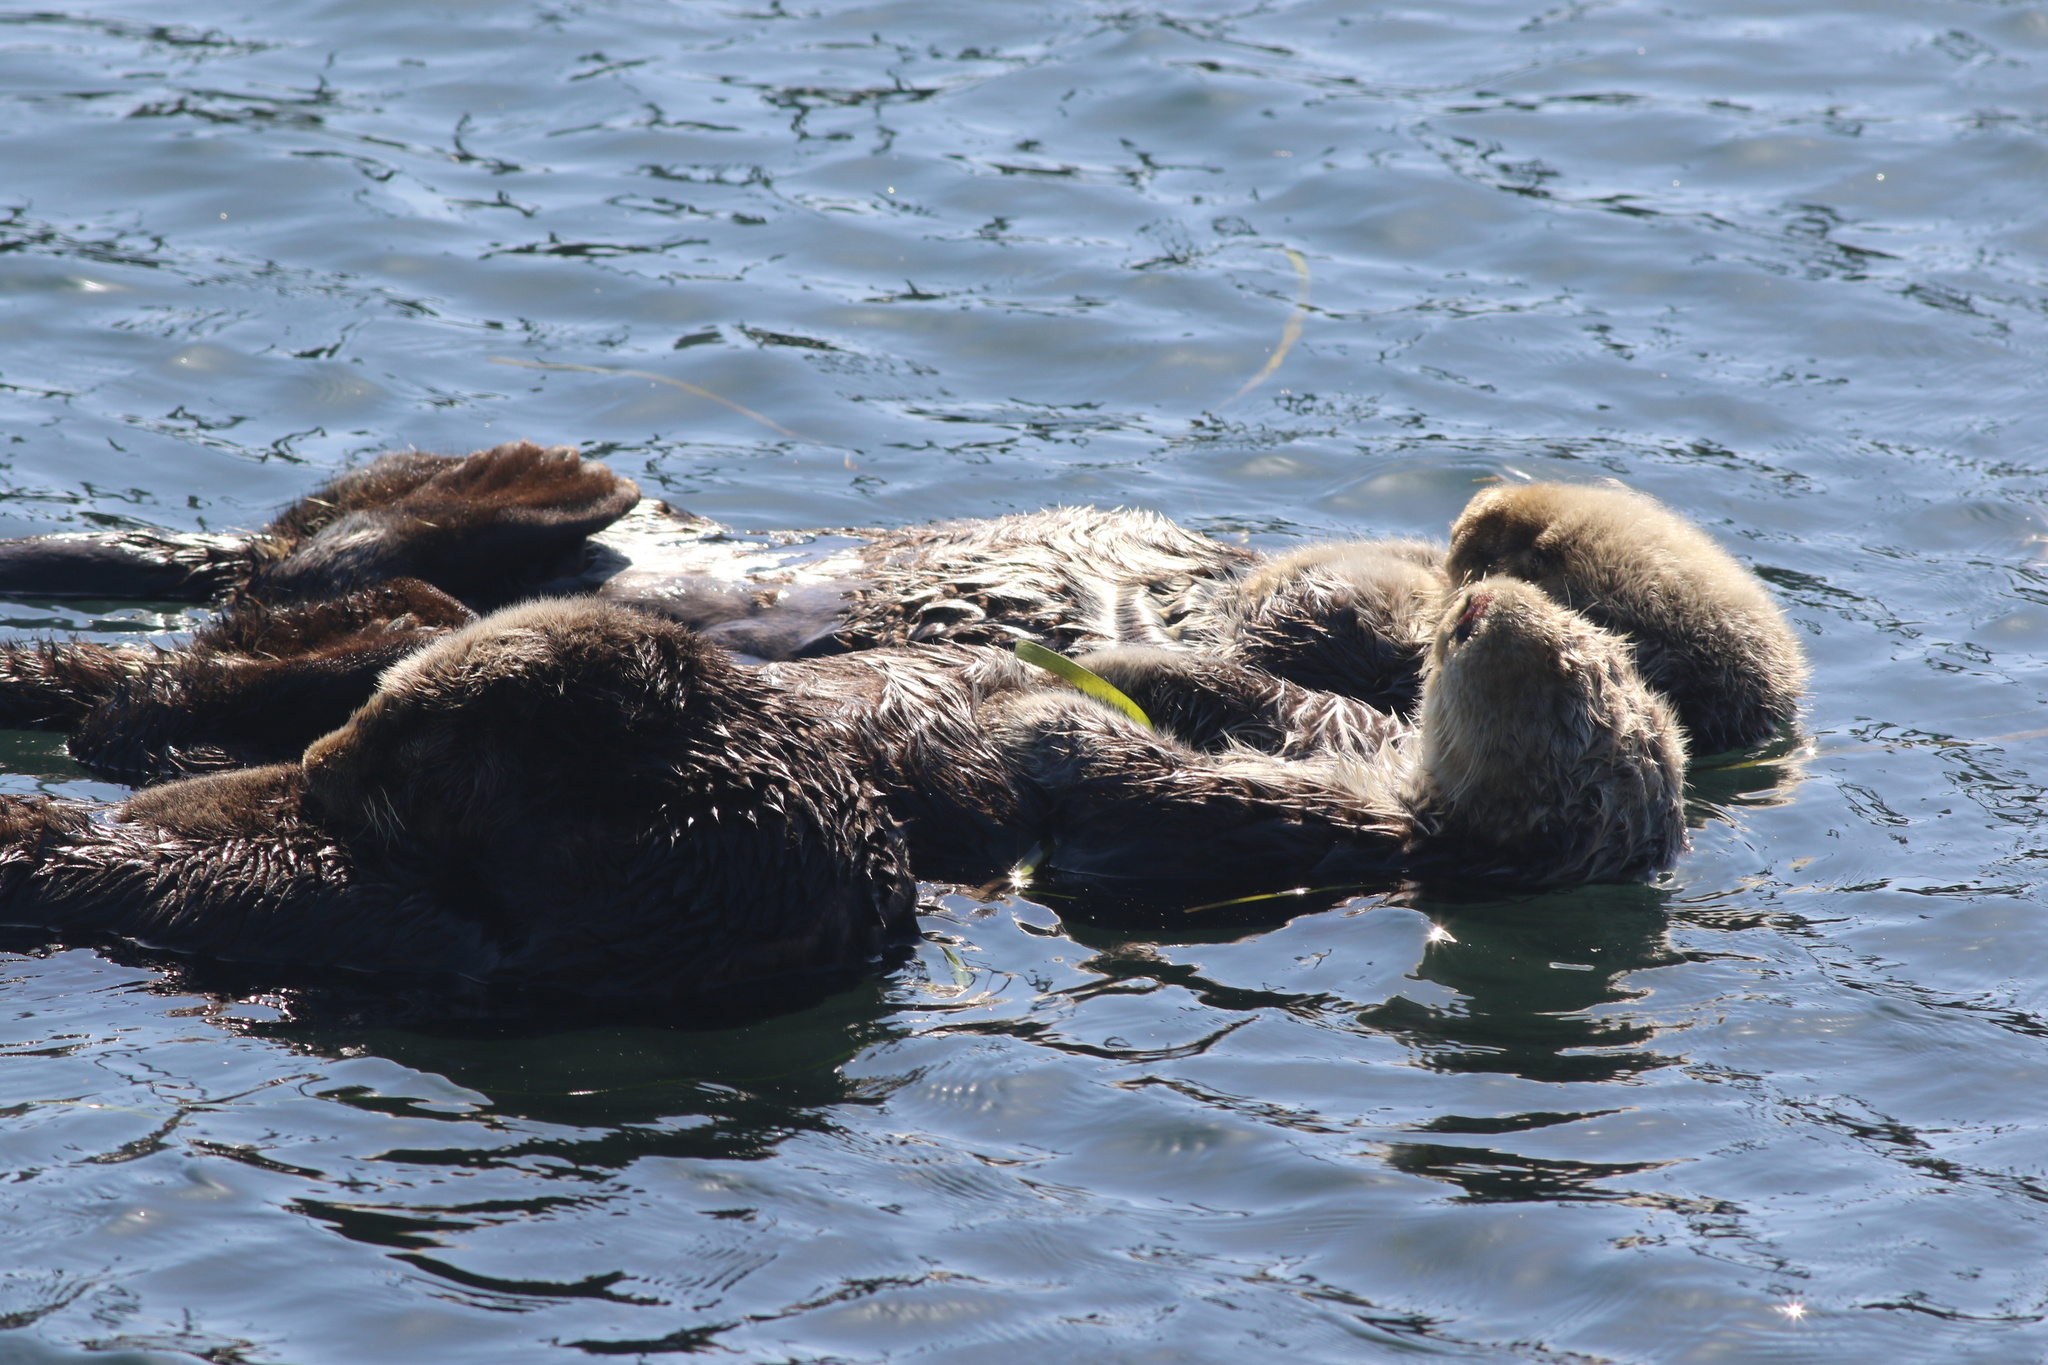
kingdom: Animalia
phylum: Chordata
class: Mammalia
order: Carnivora
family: Mustelidae
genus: Enhydra
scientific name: Enhydra lutris
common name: Sea otter
